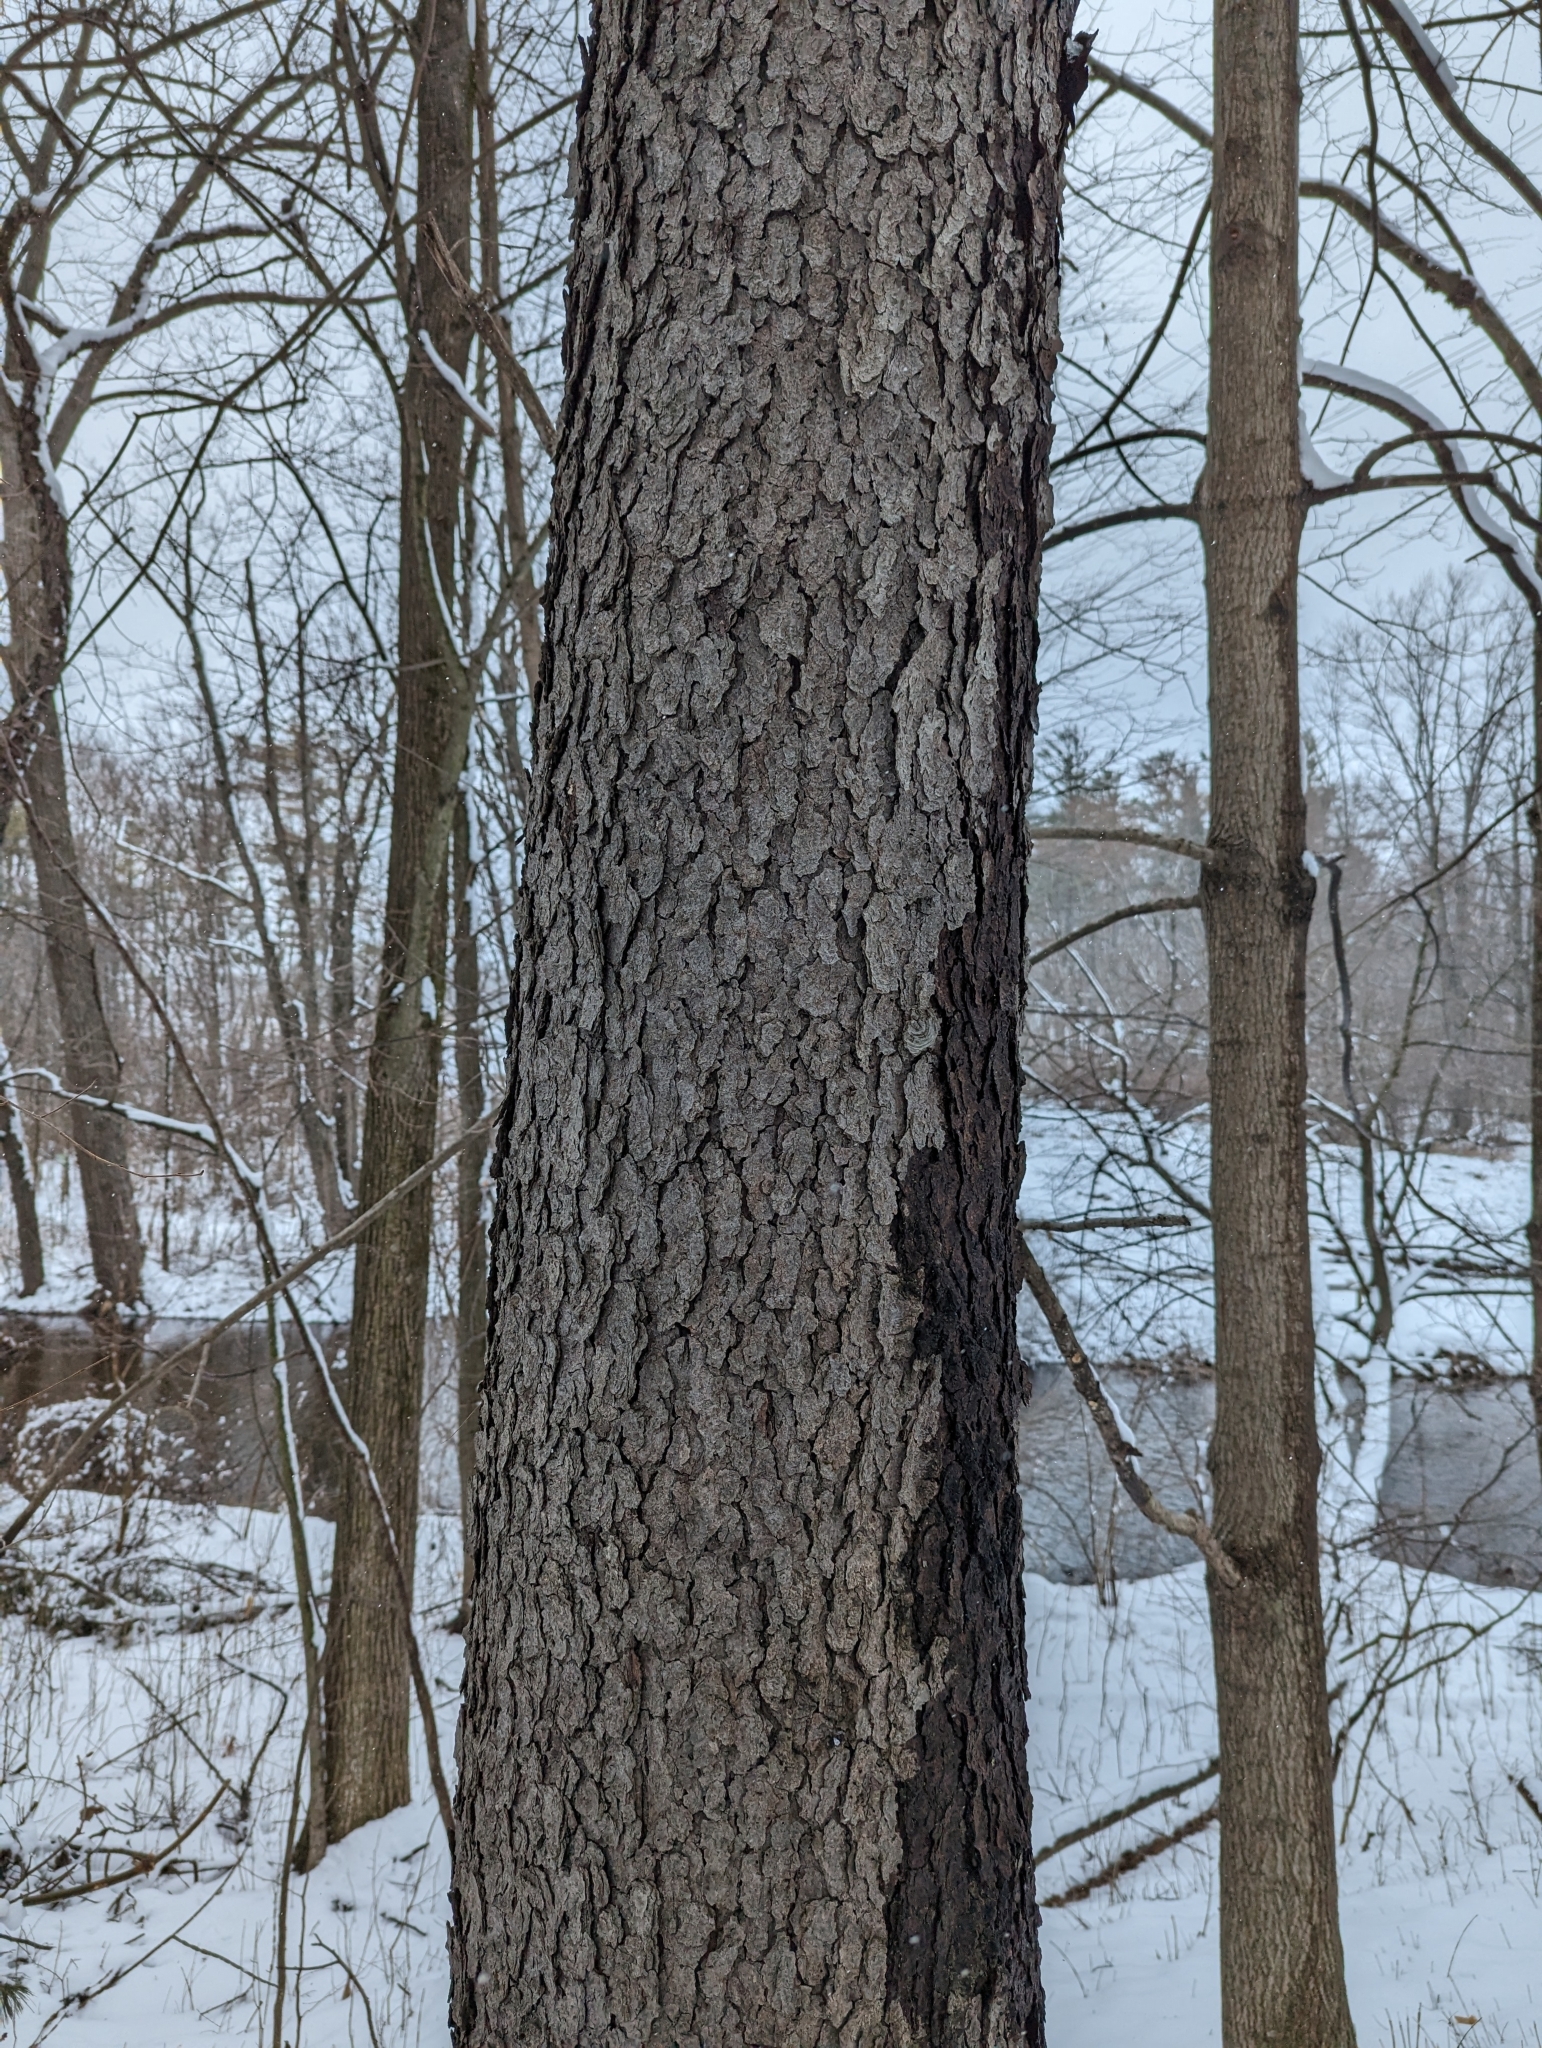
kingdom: Plantae
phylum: Tracheophyta
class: Magnoliopsida
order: Rosales
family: Rosaceae
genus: Prunus
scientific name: Prunus serotina
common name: Black cherry
